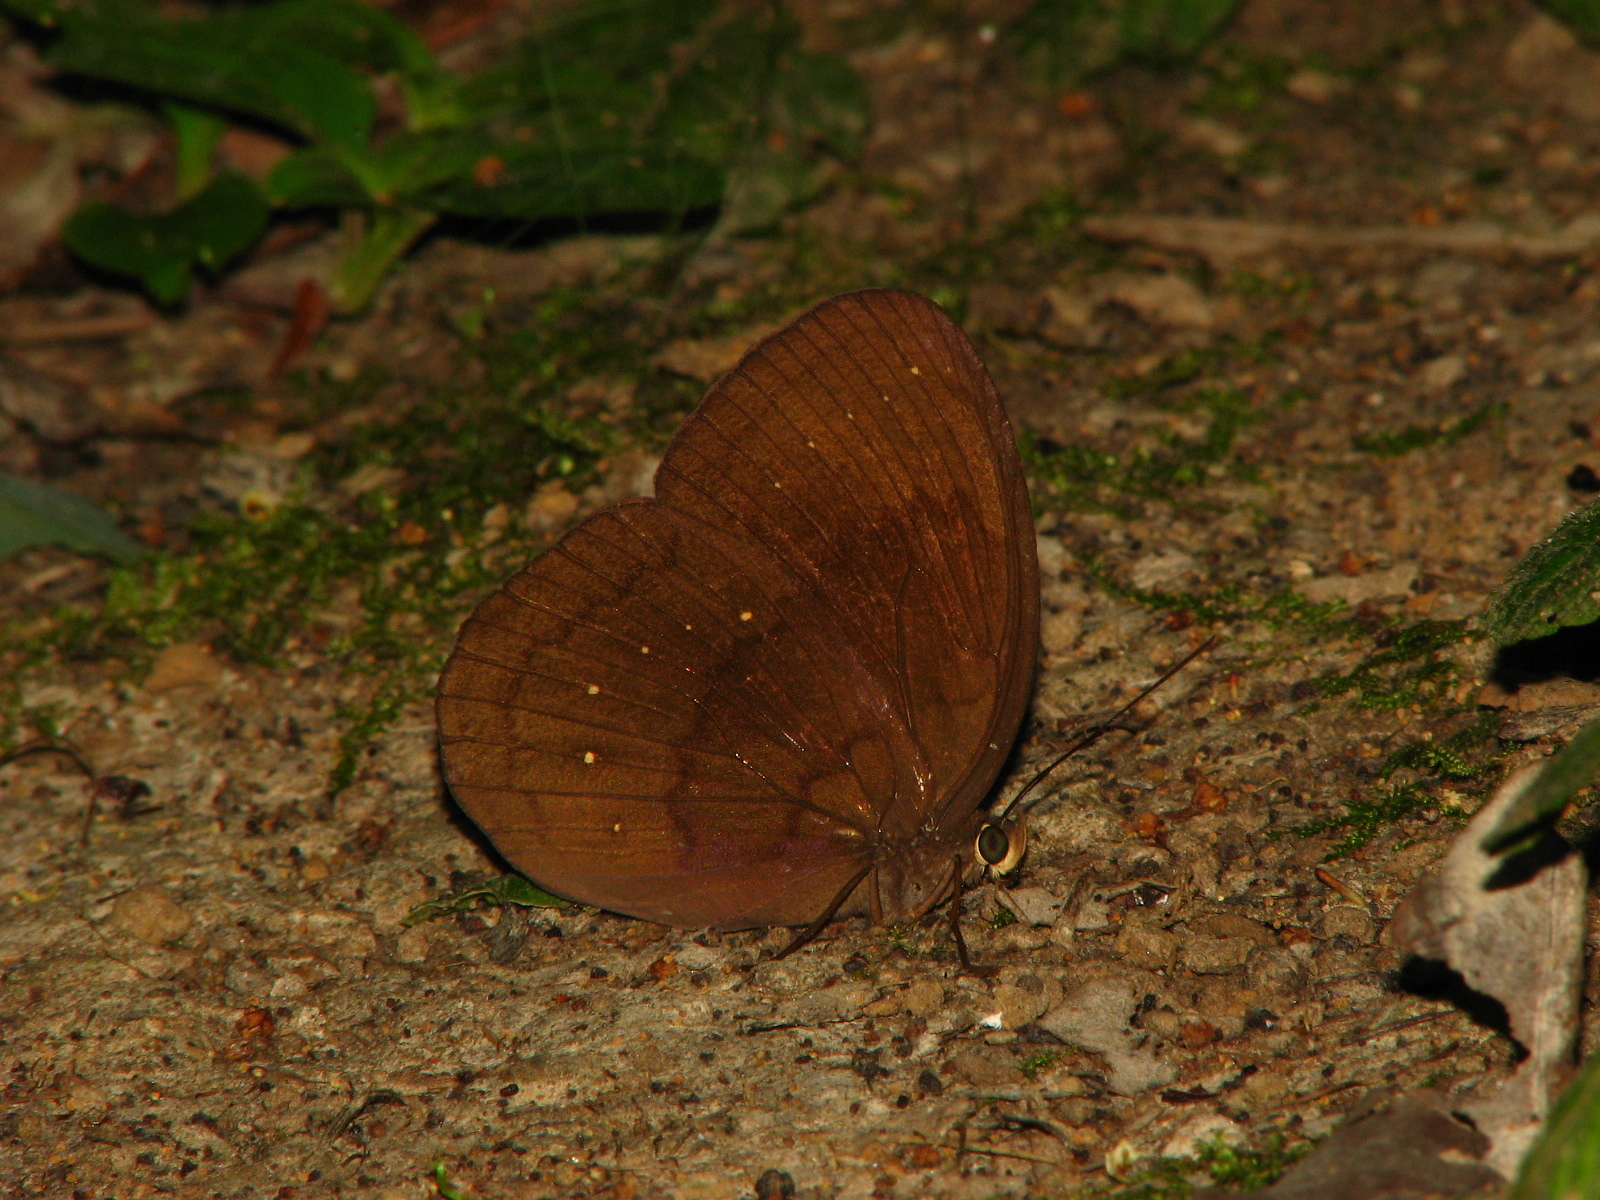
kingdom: Animalia
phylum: Arthropoda
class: Insecta
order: Lepidoptera
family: Nymphalidae
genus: Faunis
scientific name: Faunis canens
